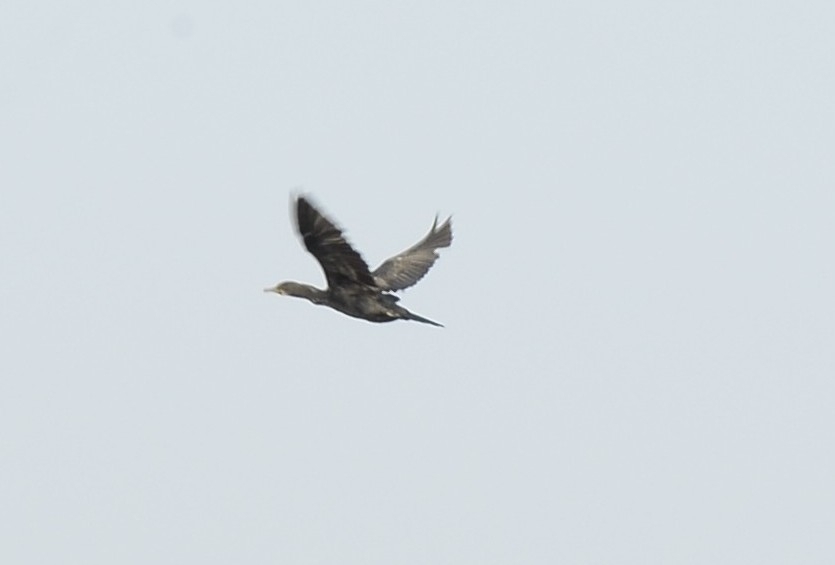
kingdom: Animalia
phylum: Chordata
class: Aves
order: Suliformes
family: Phalacrocoracidae
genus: Phalacrocorax
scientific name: Phalacrocorax fuscicollis
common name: Indian cormorant
